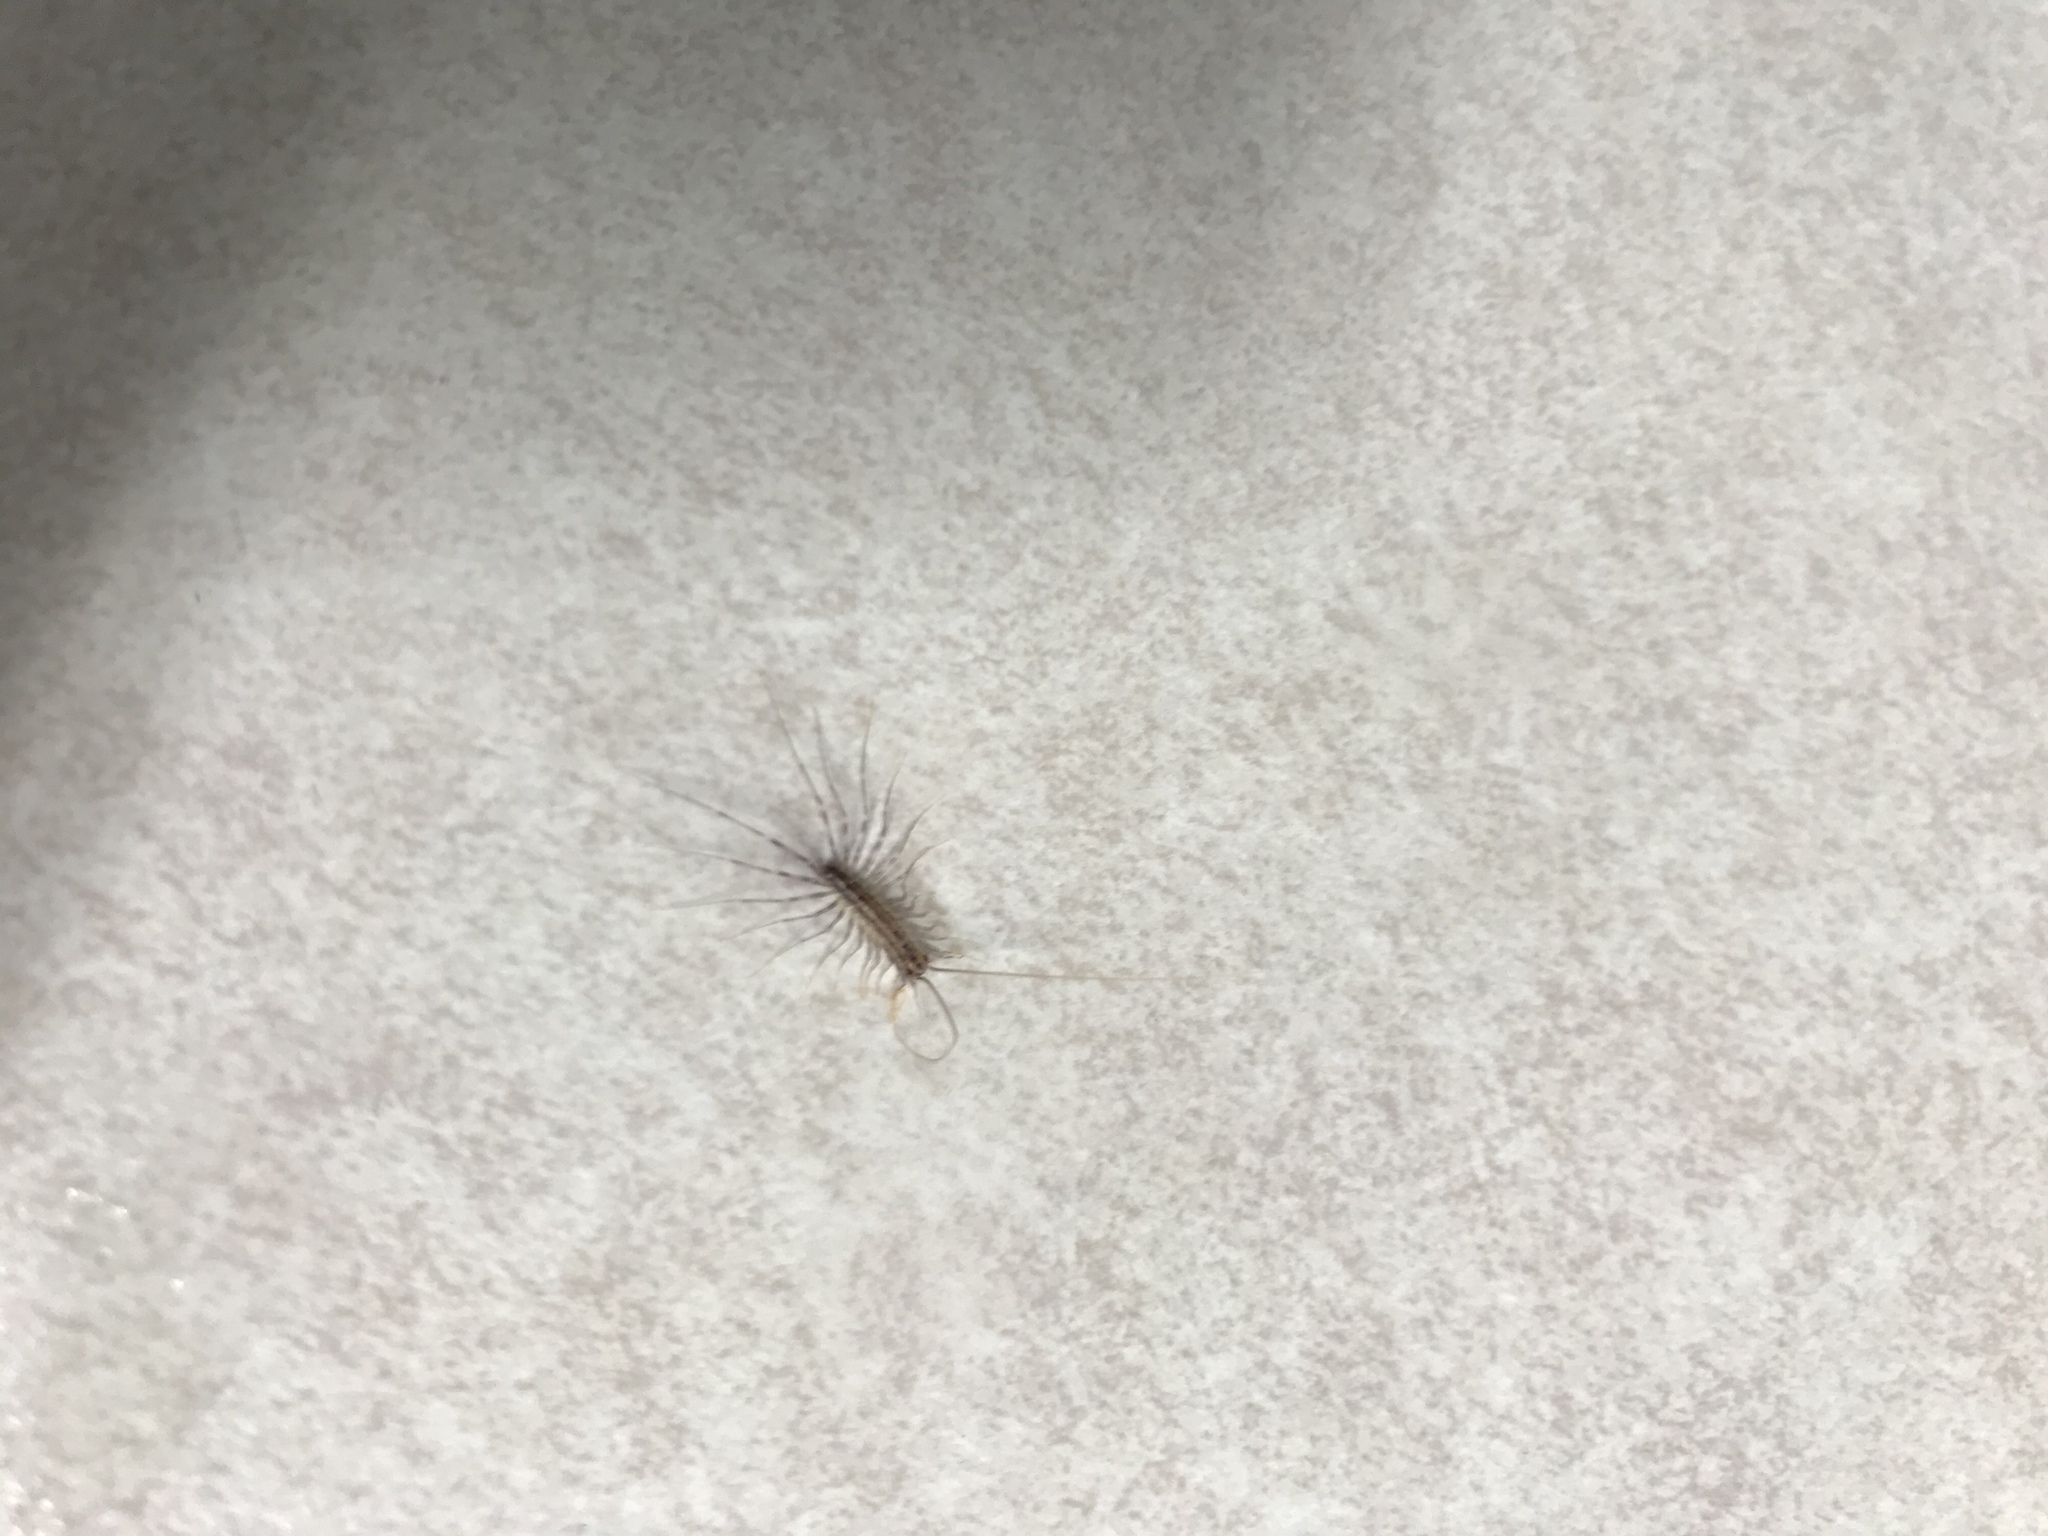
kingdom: Animalia
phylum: Arthropoda
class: Chilopoda
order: Scutigeromorpha
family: Scutigeridae
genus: Scutigera
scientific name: Scutigera coleoptrata
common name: House centipede
